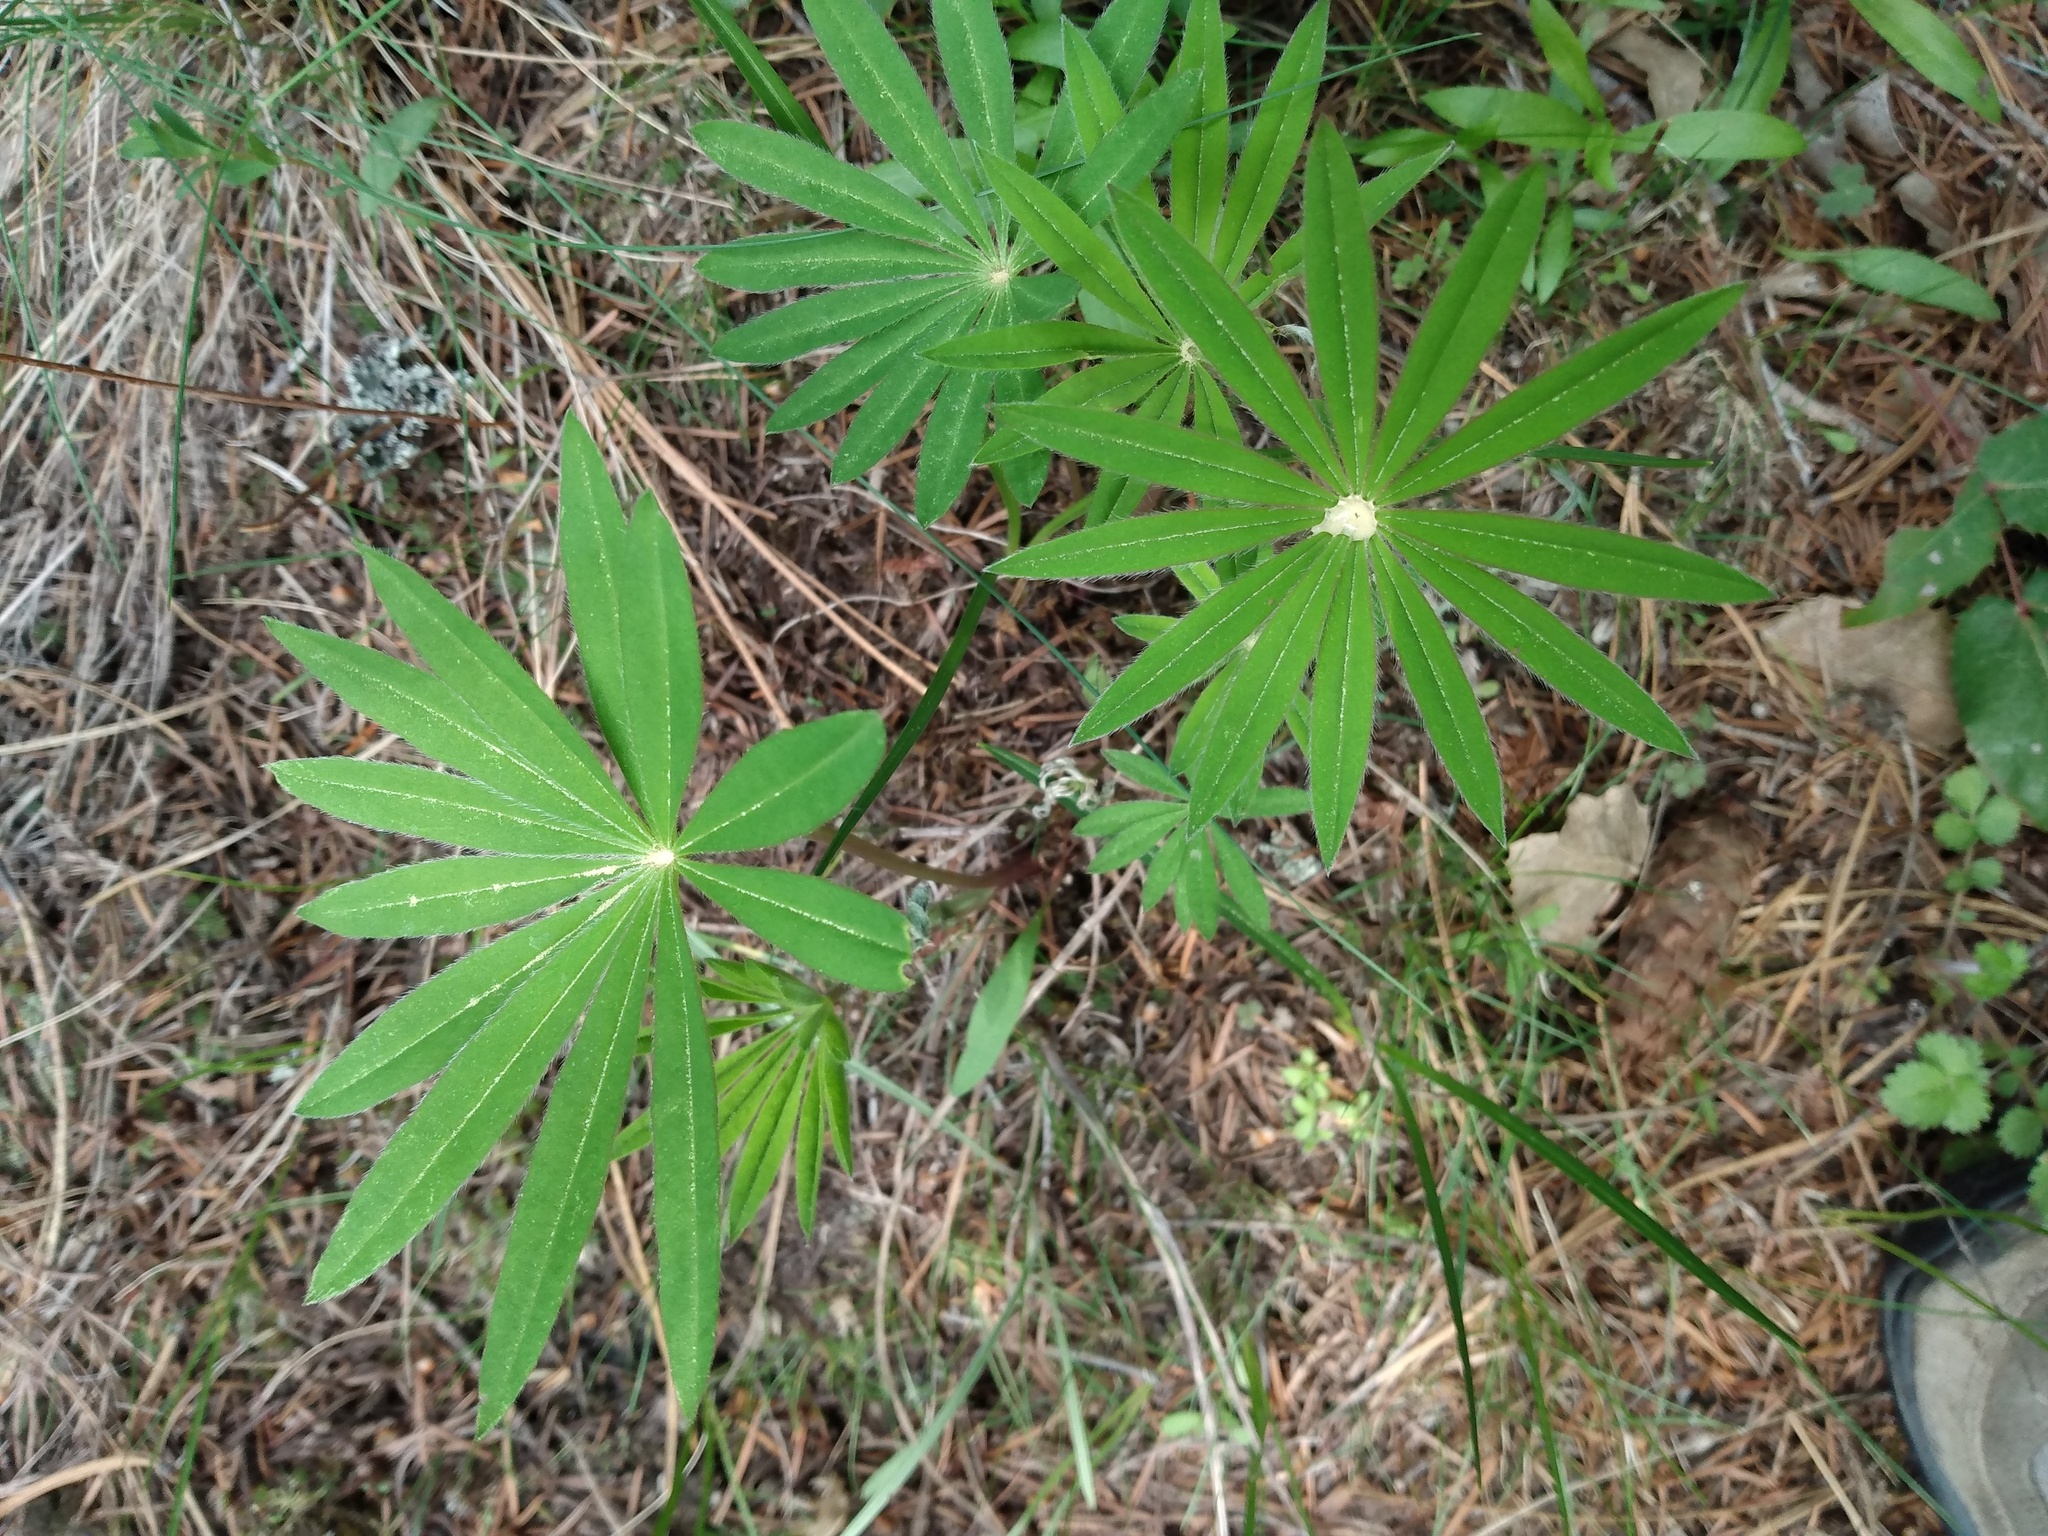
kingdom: Plantae
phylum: Tracheophyta
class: Magnoliopsida
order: Fabales
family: Fabaceae
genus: Lupinus
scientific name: Lupinus polyphyllus
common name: Garden lupin
